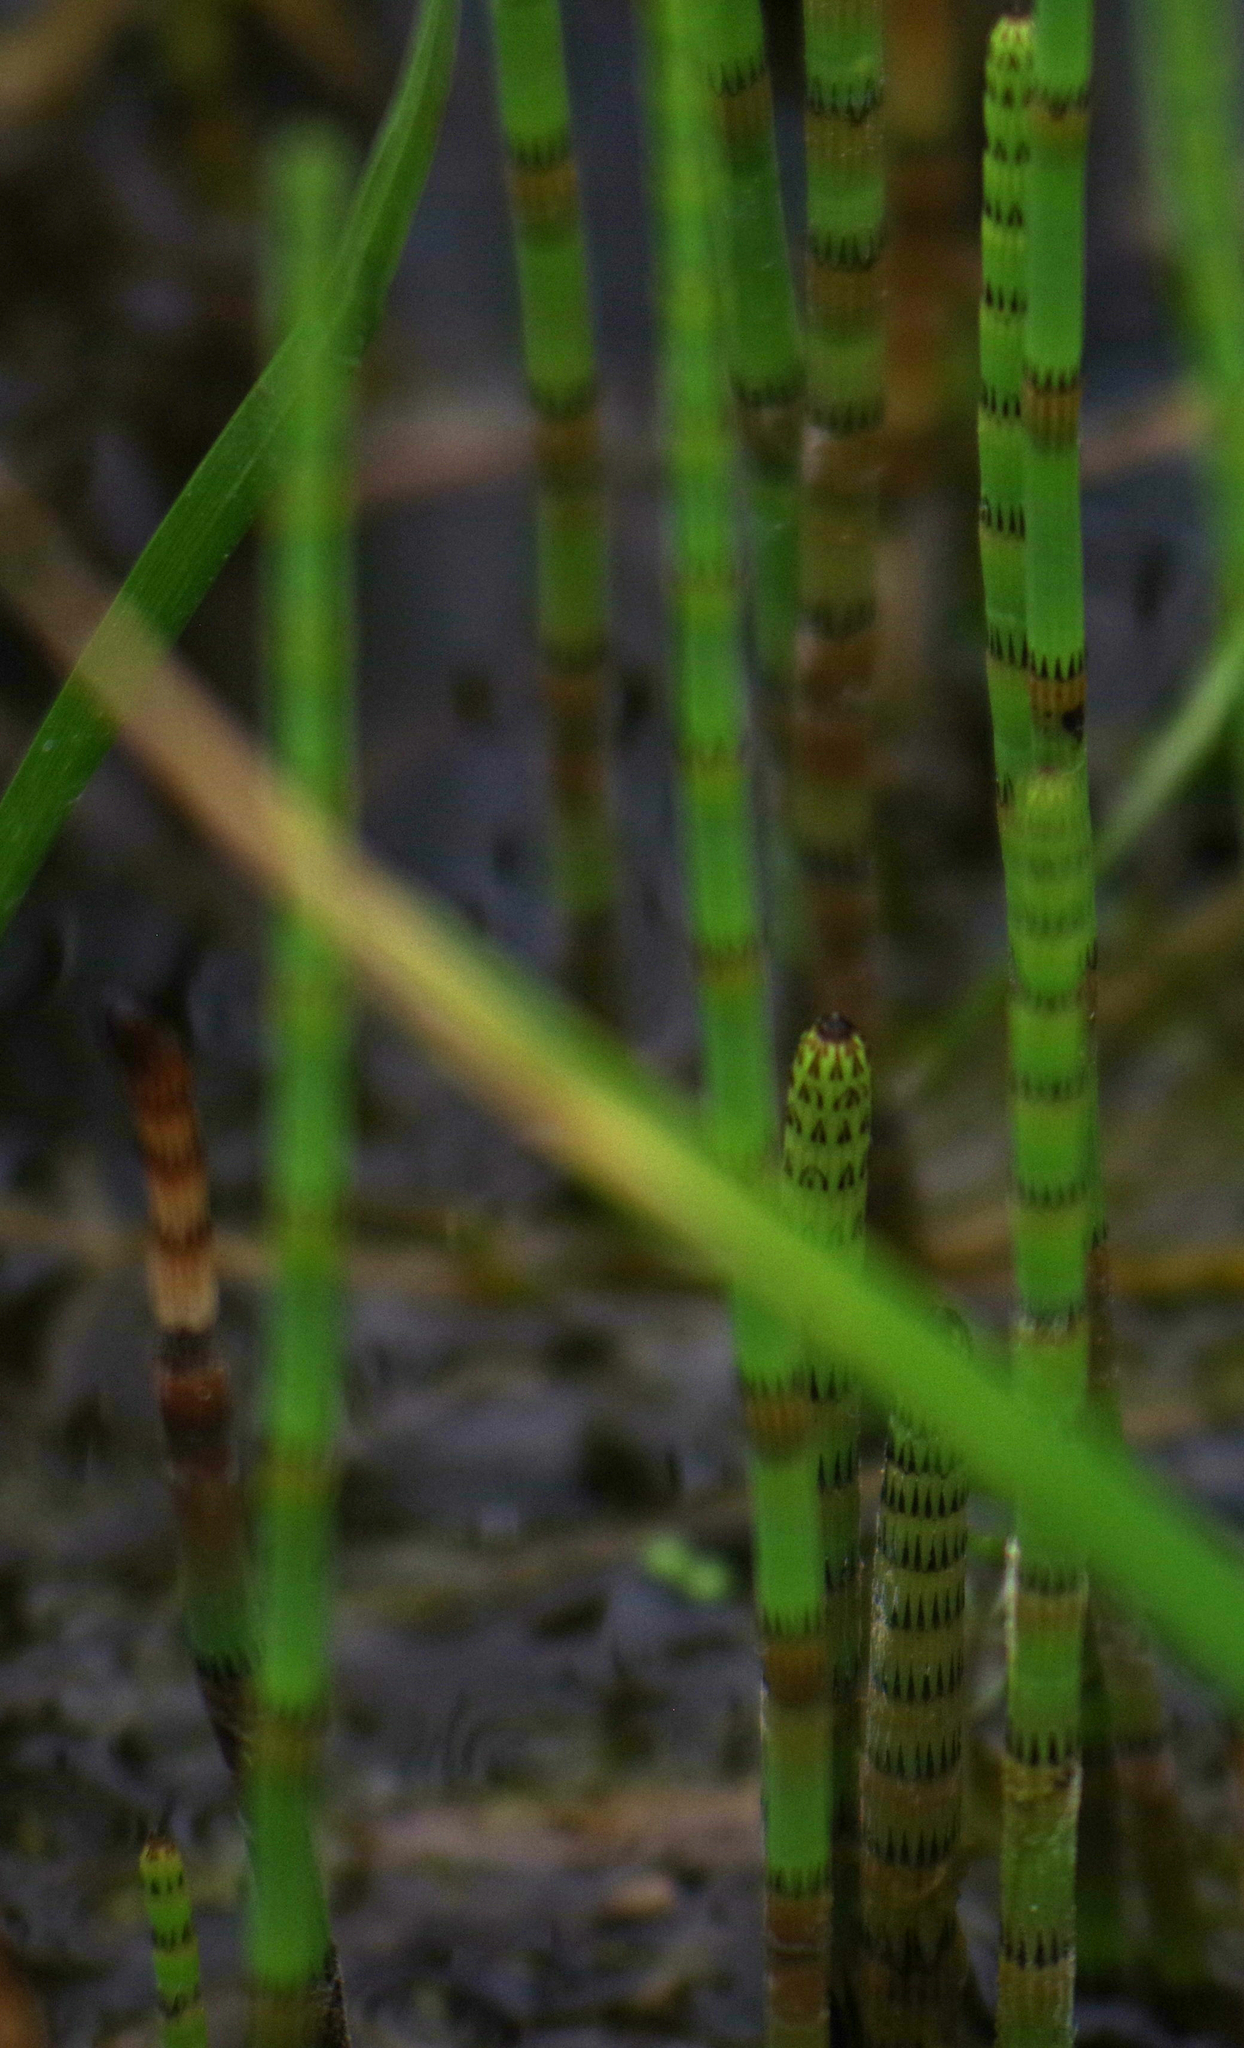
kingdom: Plantae
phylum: Tracheophyta
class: Polypodiopsida
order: Equisetales
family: Equisetaceae
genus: Equisetum
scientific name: Equisetum fluviatile
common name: Water horsetail
